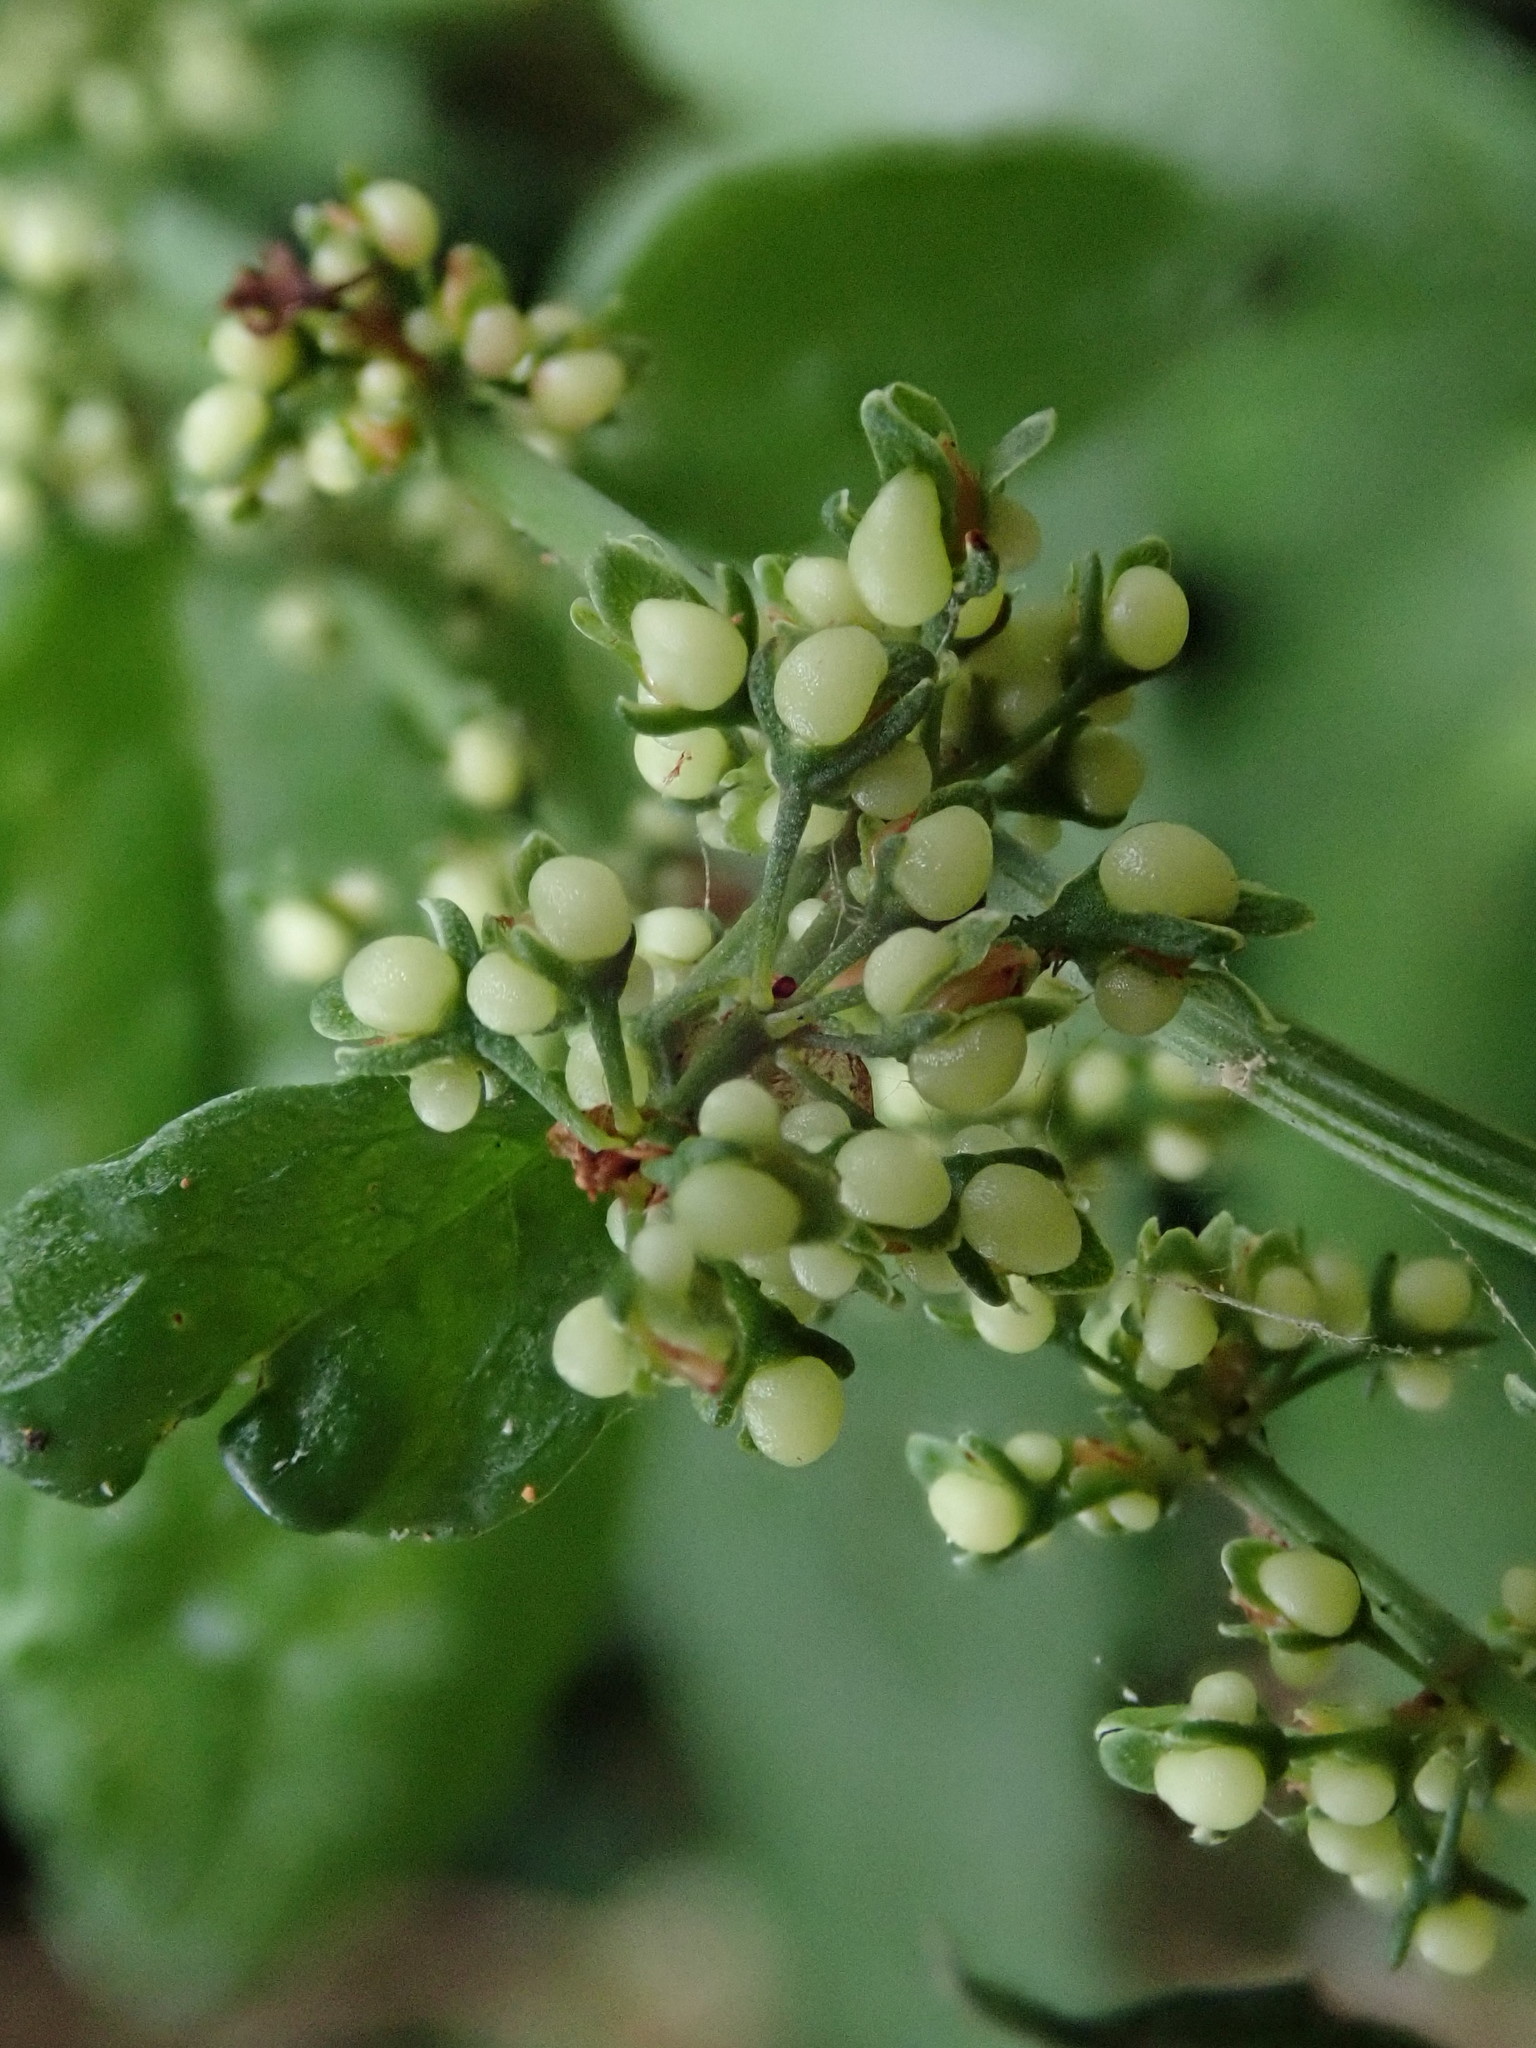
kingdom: Plantae
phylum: Tracheophyta
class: Magnoliopsida
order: Caryophyllales
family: Polygonaceae
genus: Rumex
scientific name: Rumex conglomeratus
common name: Clustered dock
